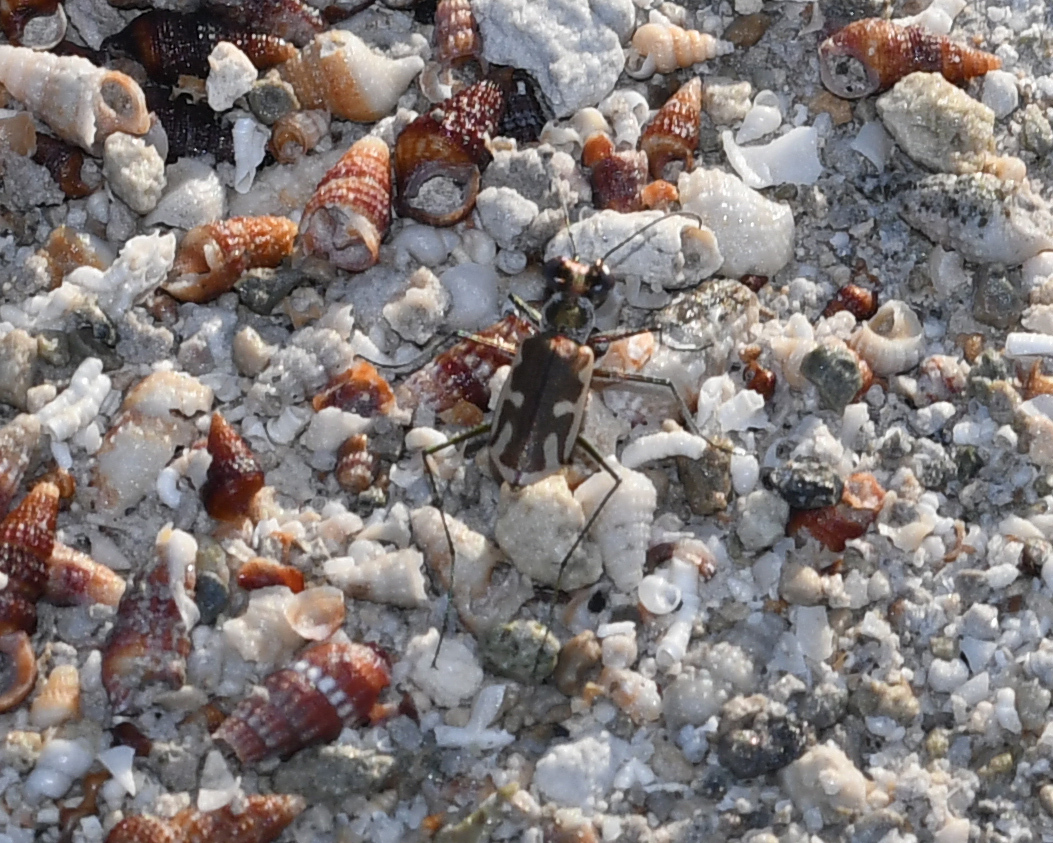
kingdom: Animalia
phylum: Arthropoda
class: Insecta
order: Coleoptera
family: Carabidae
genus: Eunota
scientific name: Eunota
